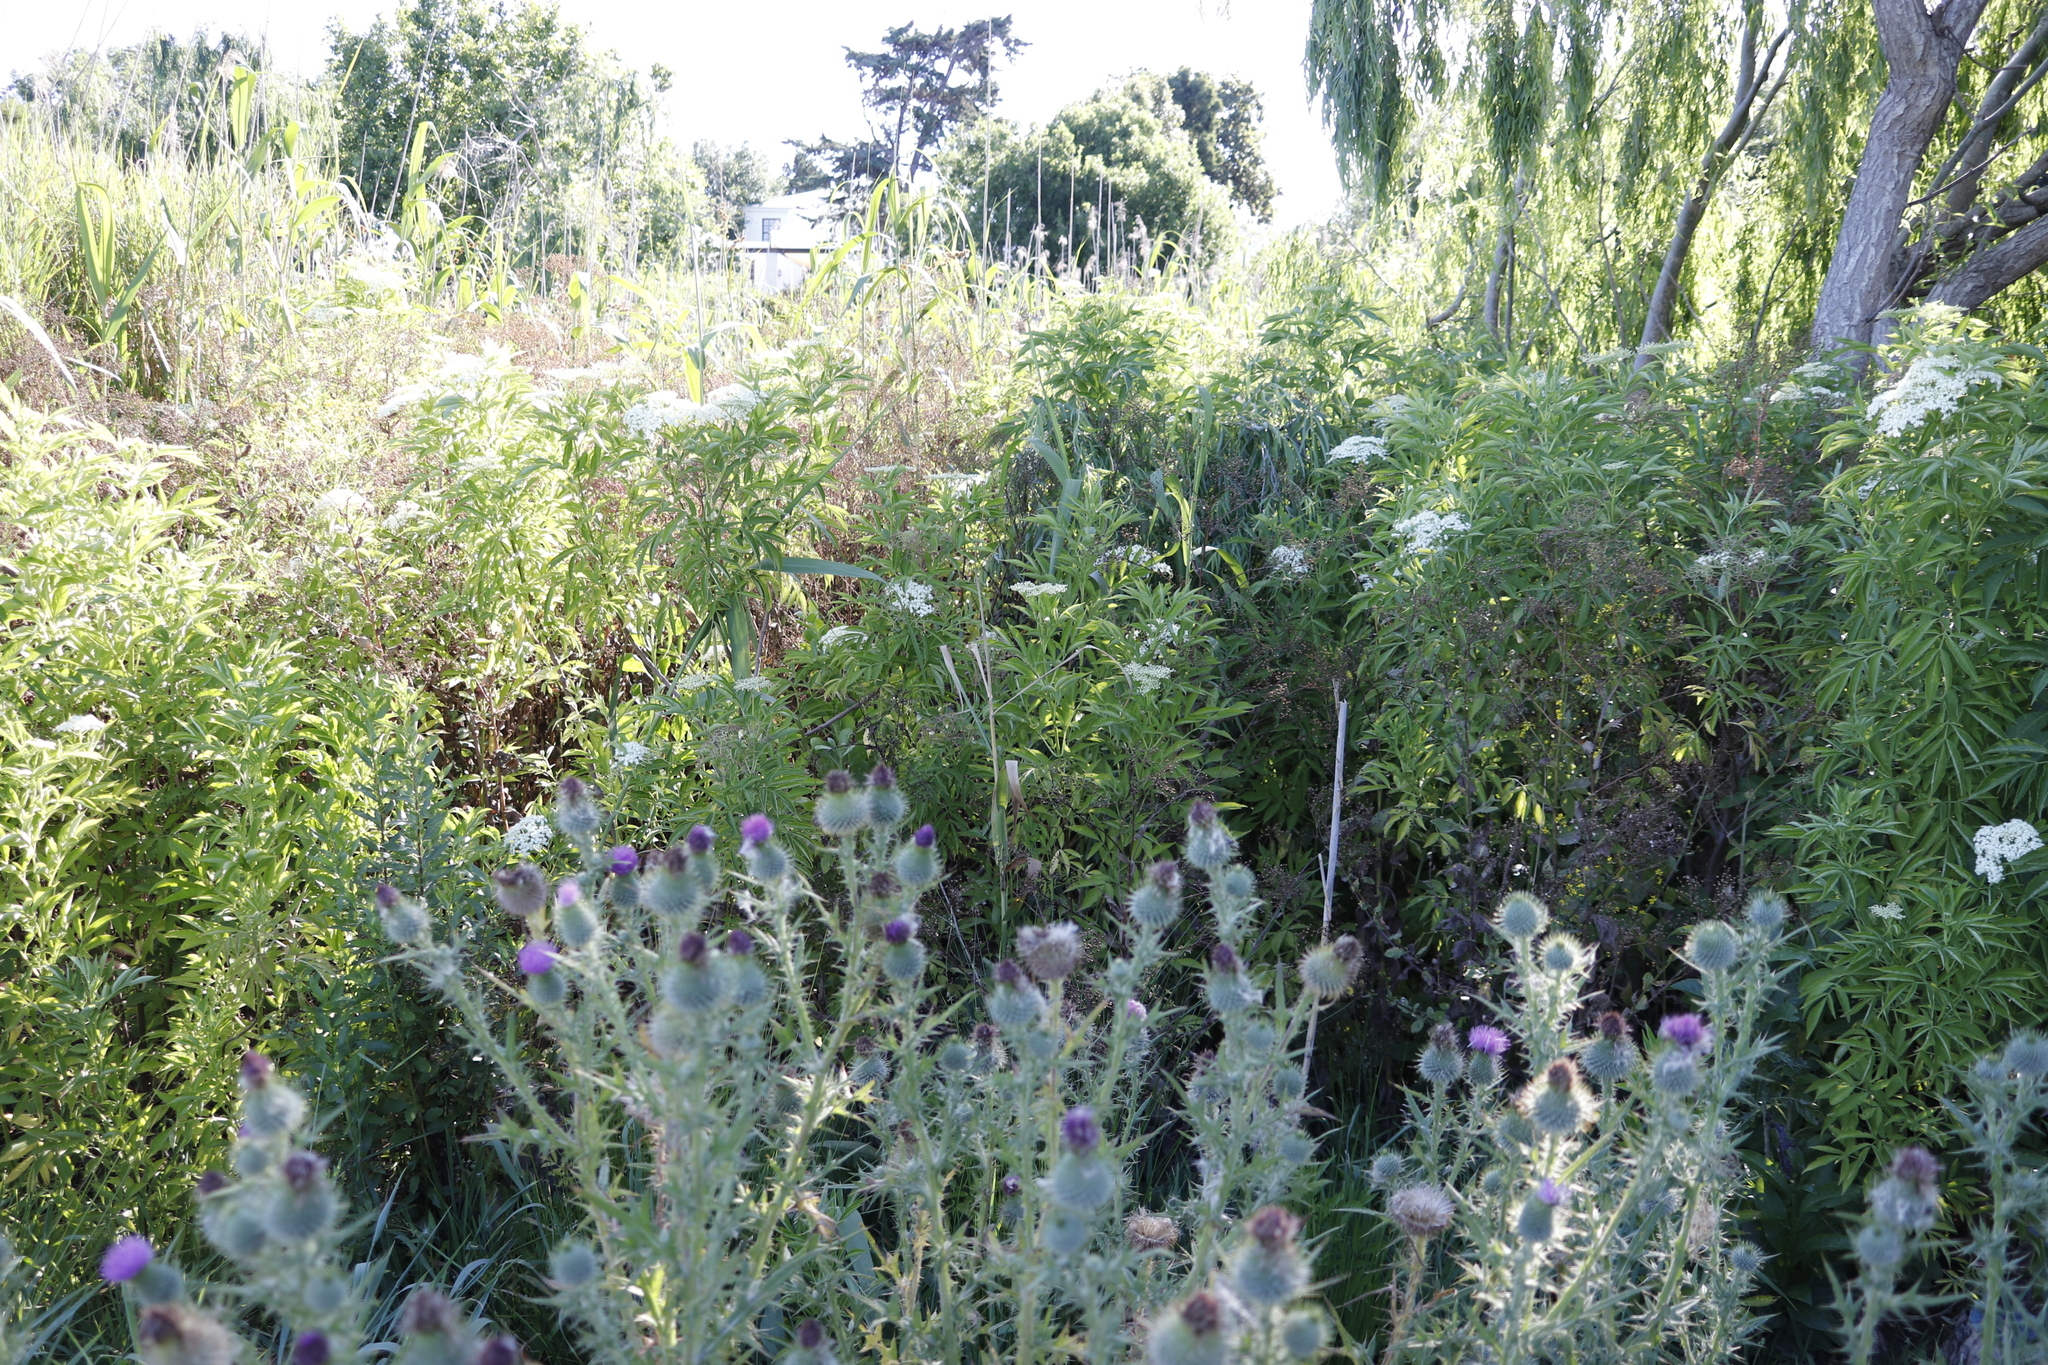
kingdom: Plantae
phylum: Tracheophyta
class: Magnoliopsida
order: Dipsacales
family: Viburnaceae
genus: Sambucus
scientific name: Sambucus nigra
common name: Elder
